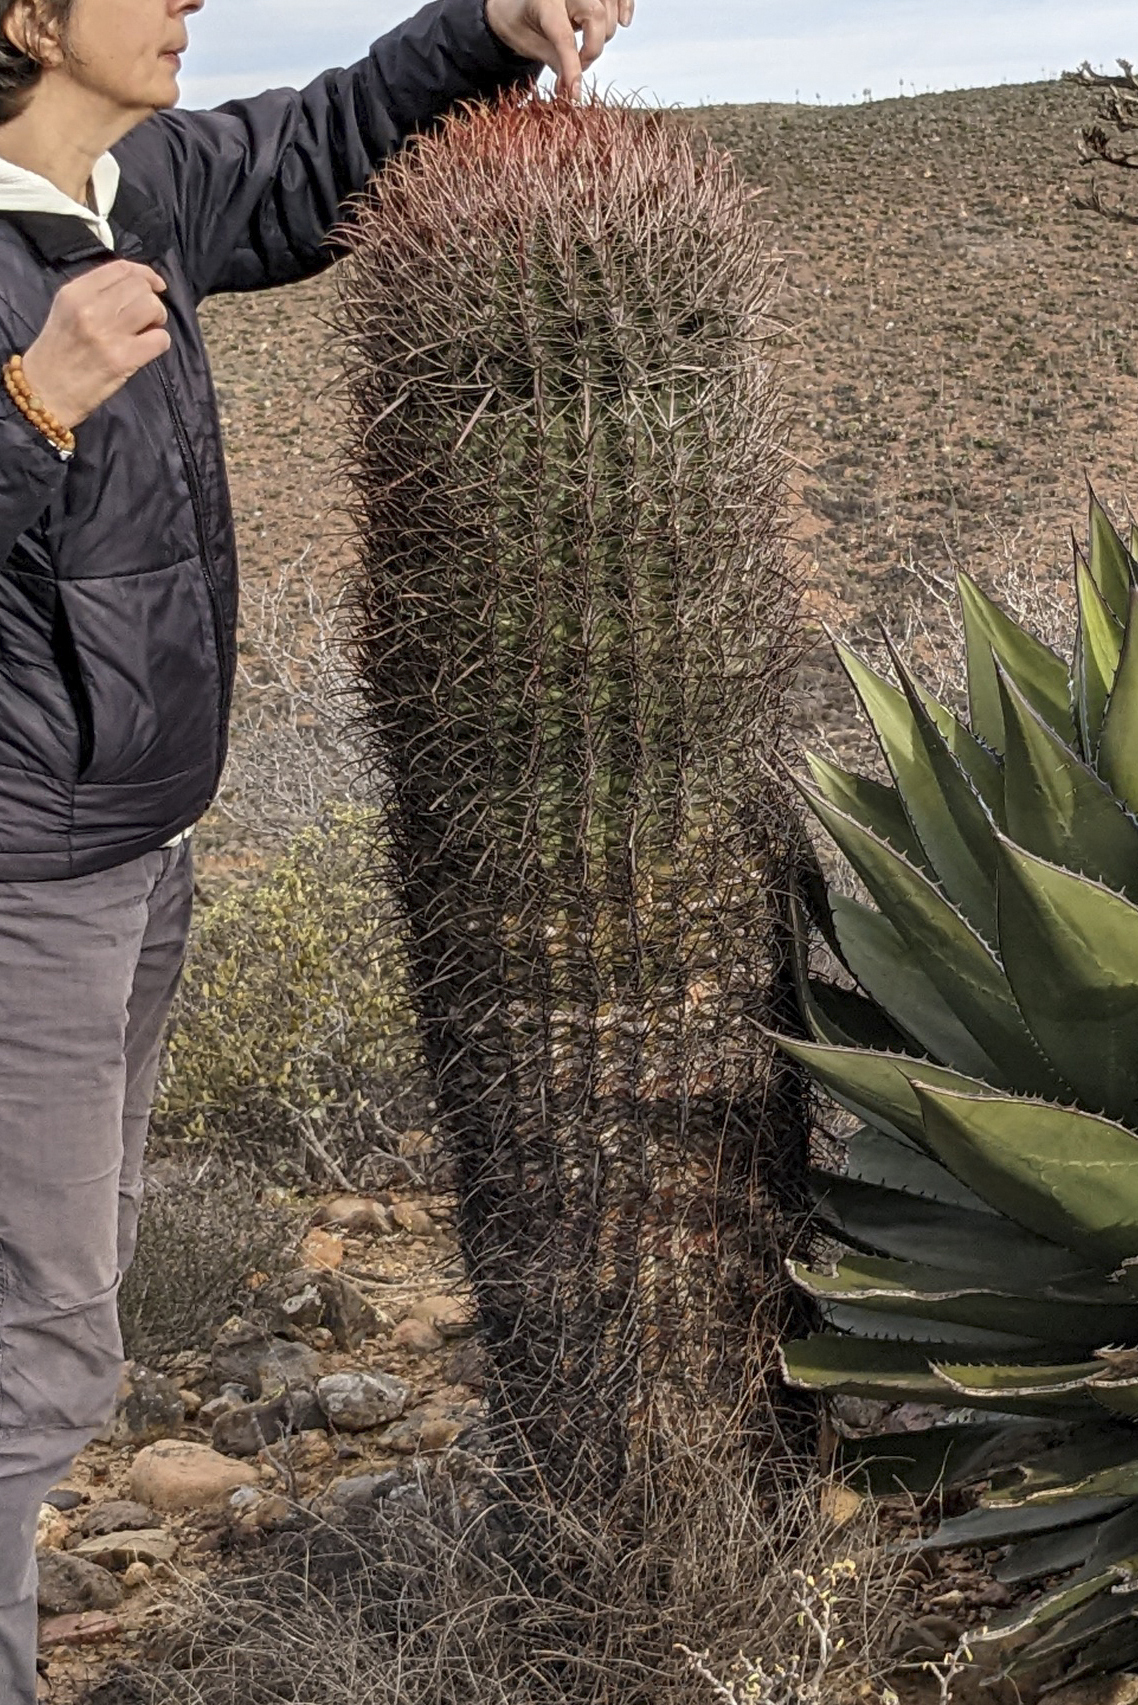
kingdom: Plantae
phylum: Tracheophyta
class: Magnoliopsida
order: Caryophyllales
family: Cactaceae
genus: Ferocactus
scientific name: Ferocactus gracilis
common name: Fire barrel cactus
